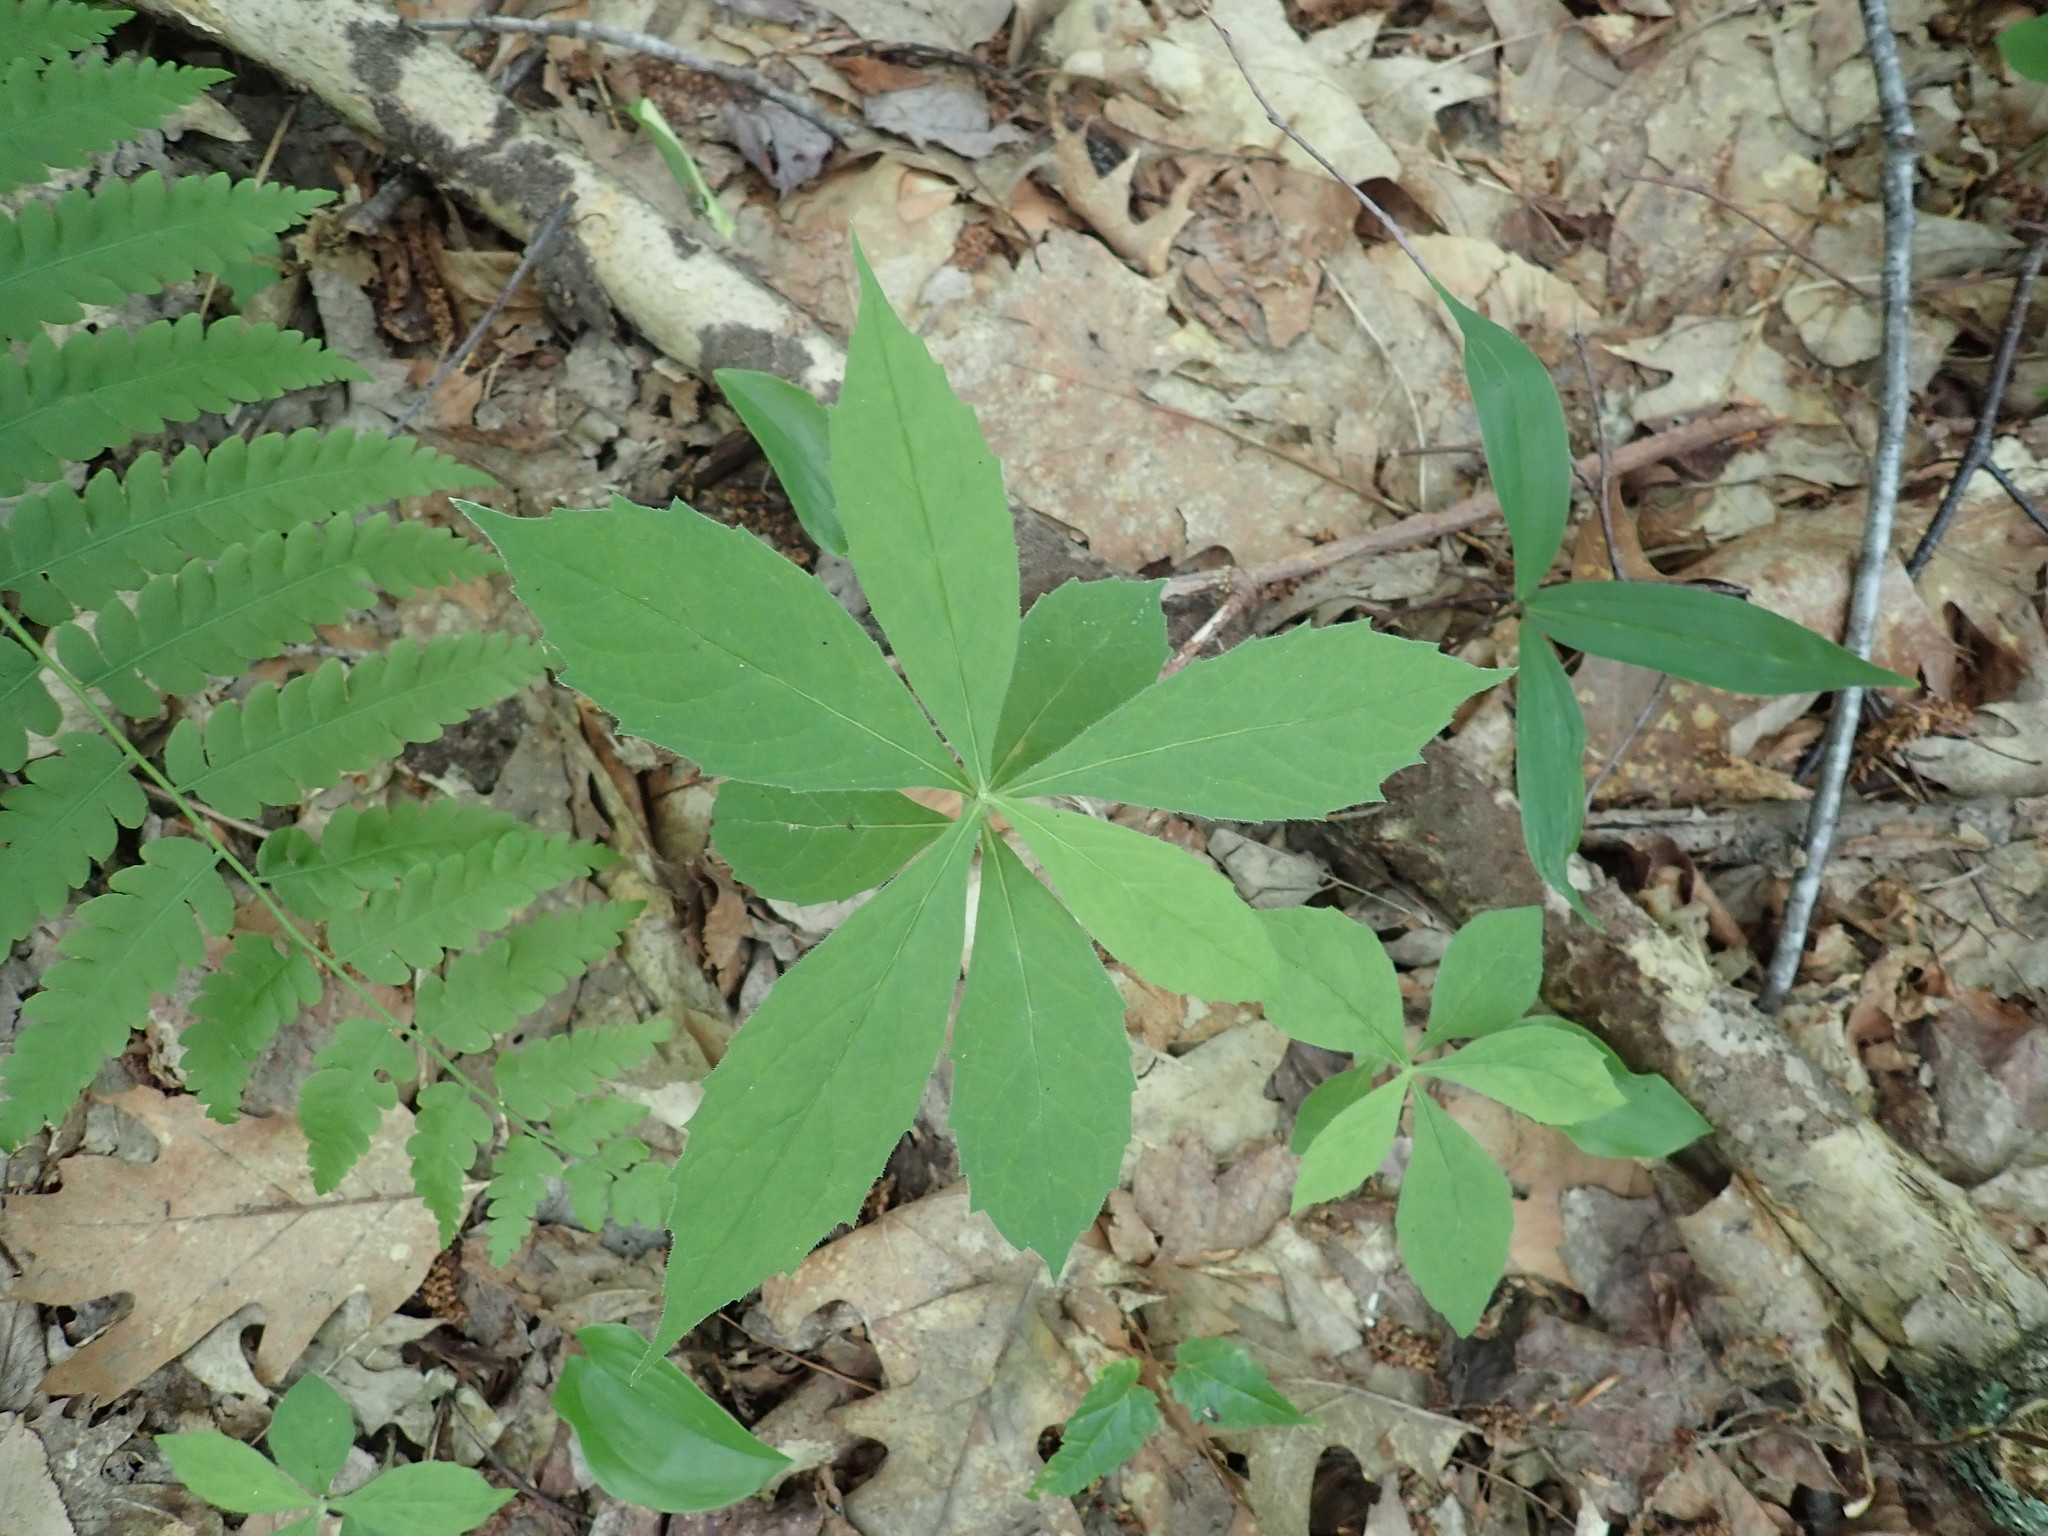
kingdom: Plantae
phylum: Tracheophyta
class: Magnoliopsida
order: Asterales
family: Asteraceae
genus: Oclemena
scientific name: Oclemena acuminata
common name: Mountain aster
